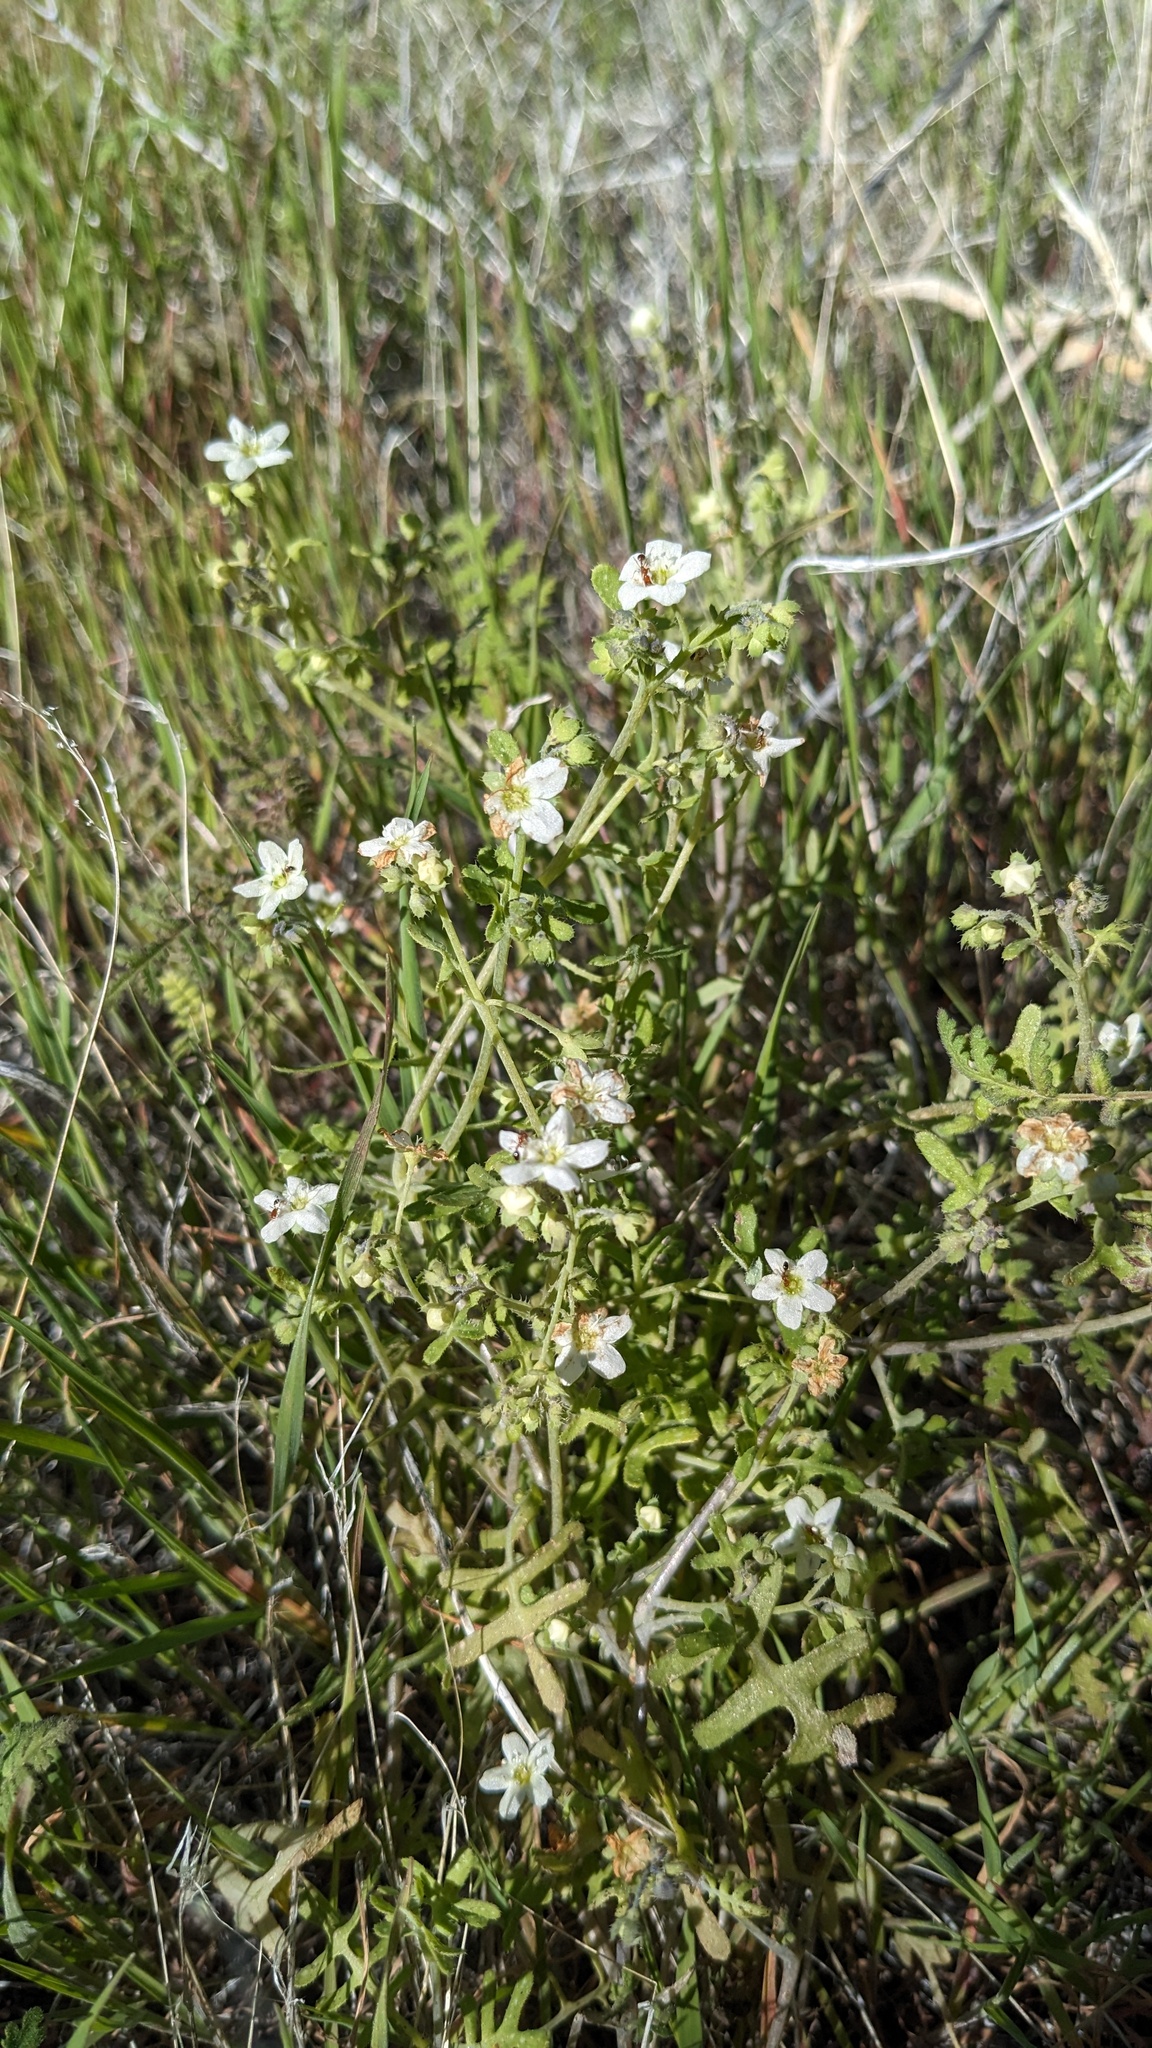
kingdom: Plantae
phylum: Tracheophyta
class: Magnoliopsida
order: Boraginales
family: Hydrophyllaceae
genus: Pholistoma
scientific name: Pholistoma membranaceum
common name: White fiesta-flower
